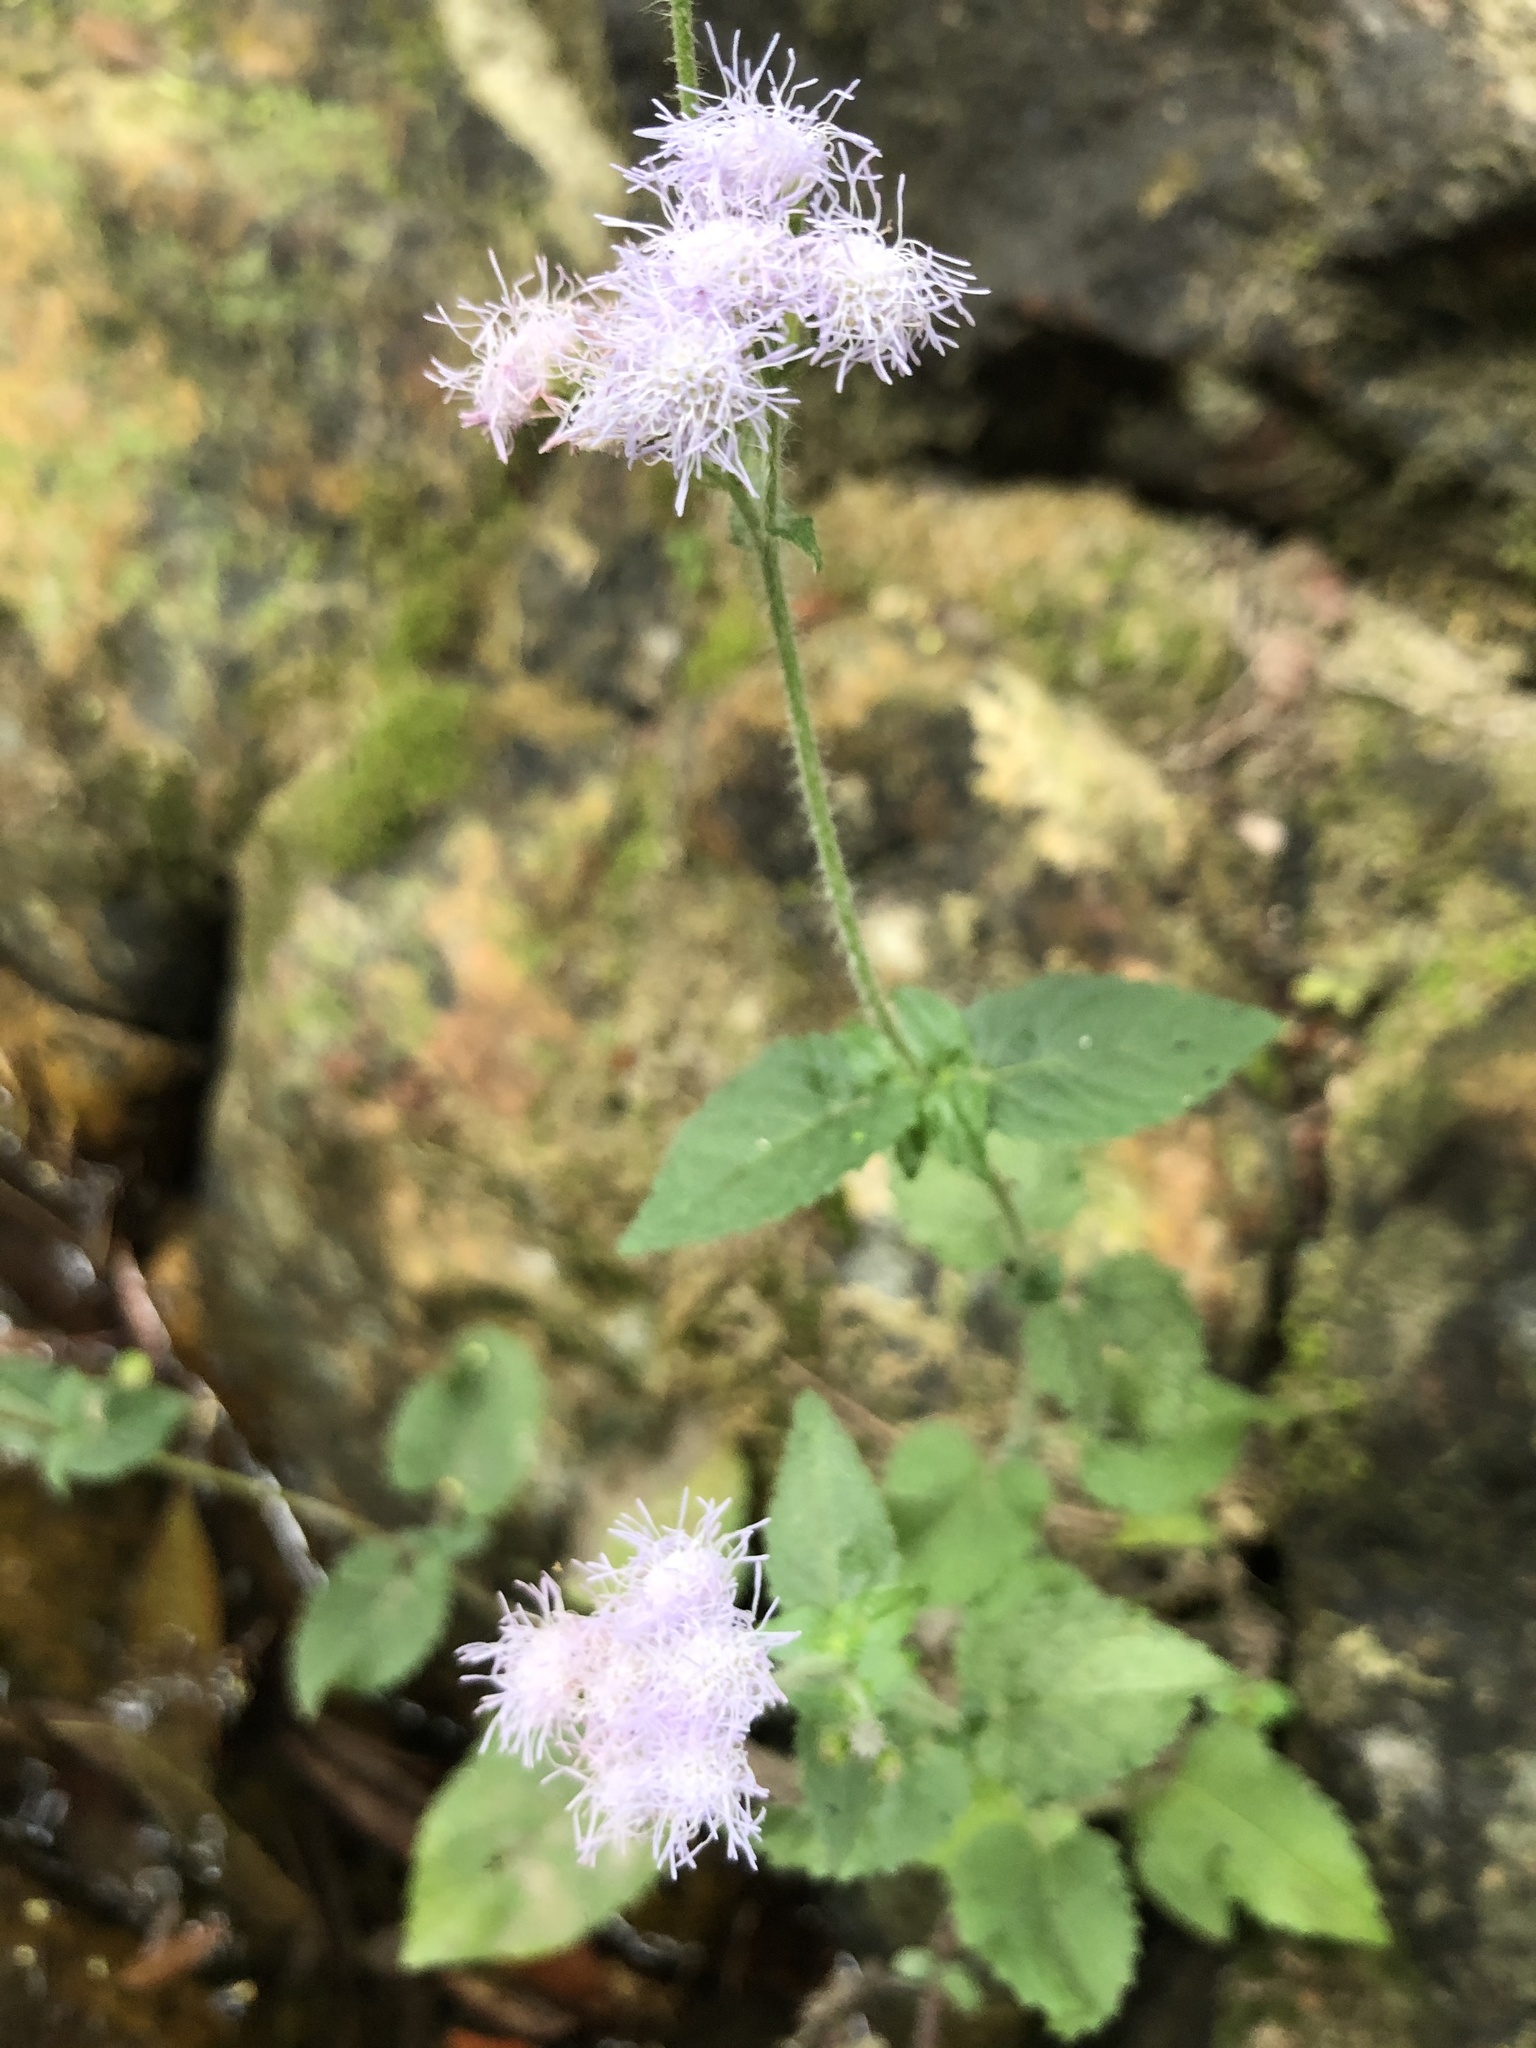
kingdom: Plantae
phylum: Tracheophyta
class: Magnoliopsida
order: Asterales
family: Asteraceae
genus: Ageratum
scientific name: Ageratum houstonianum
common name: Bluemink
